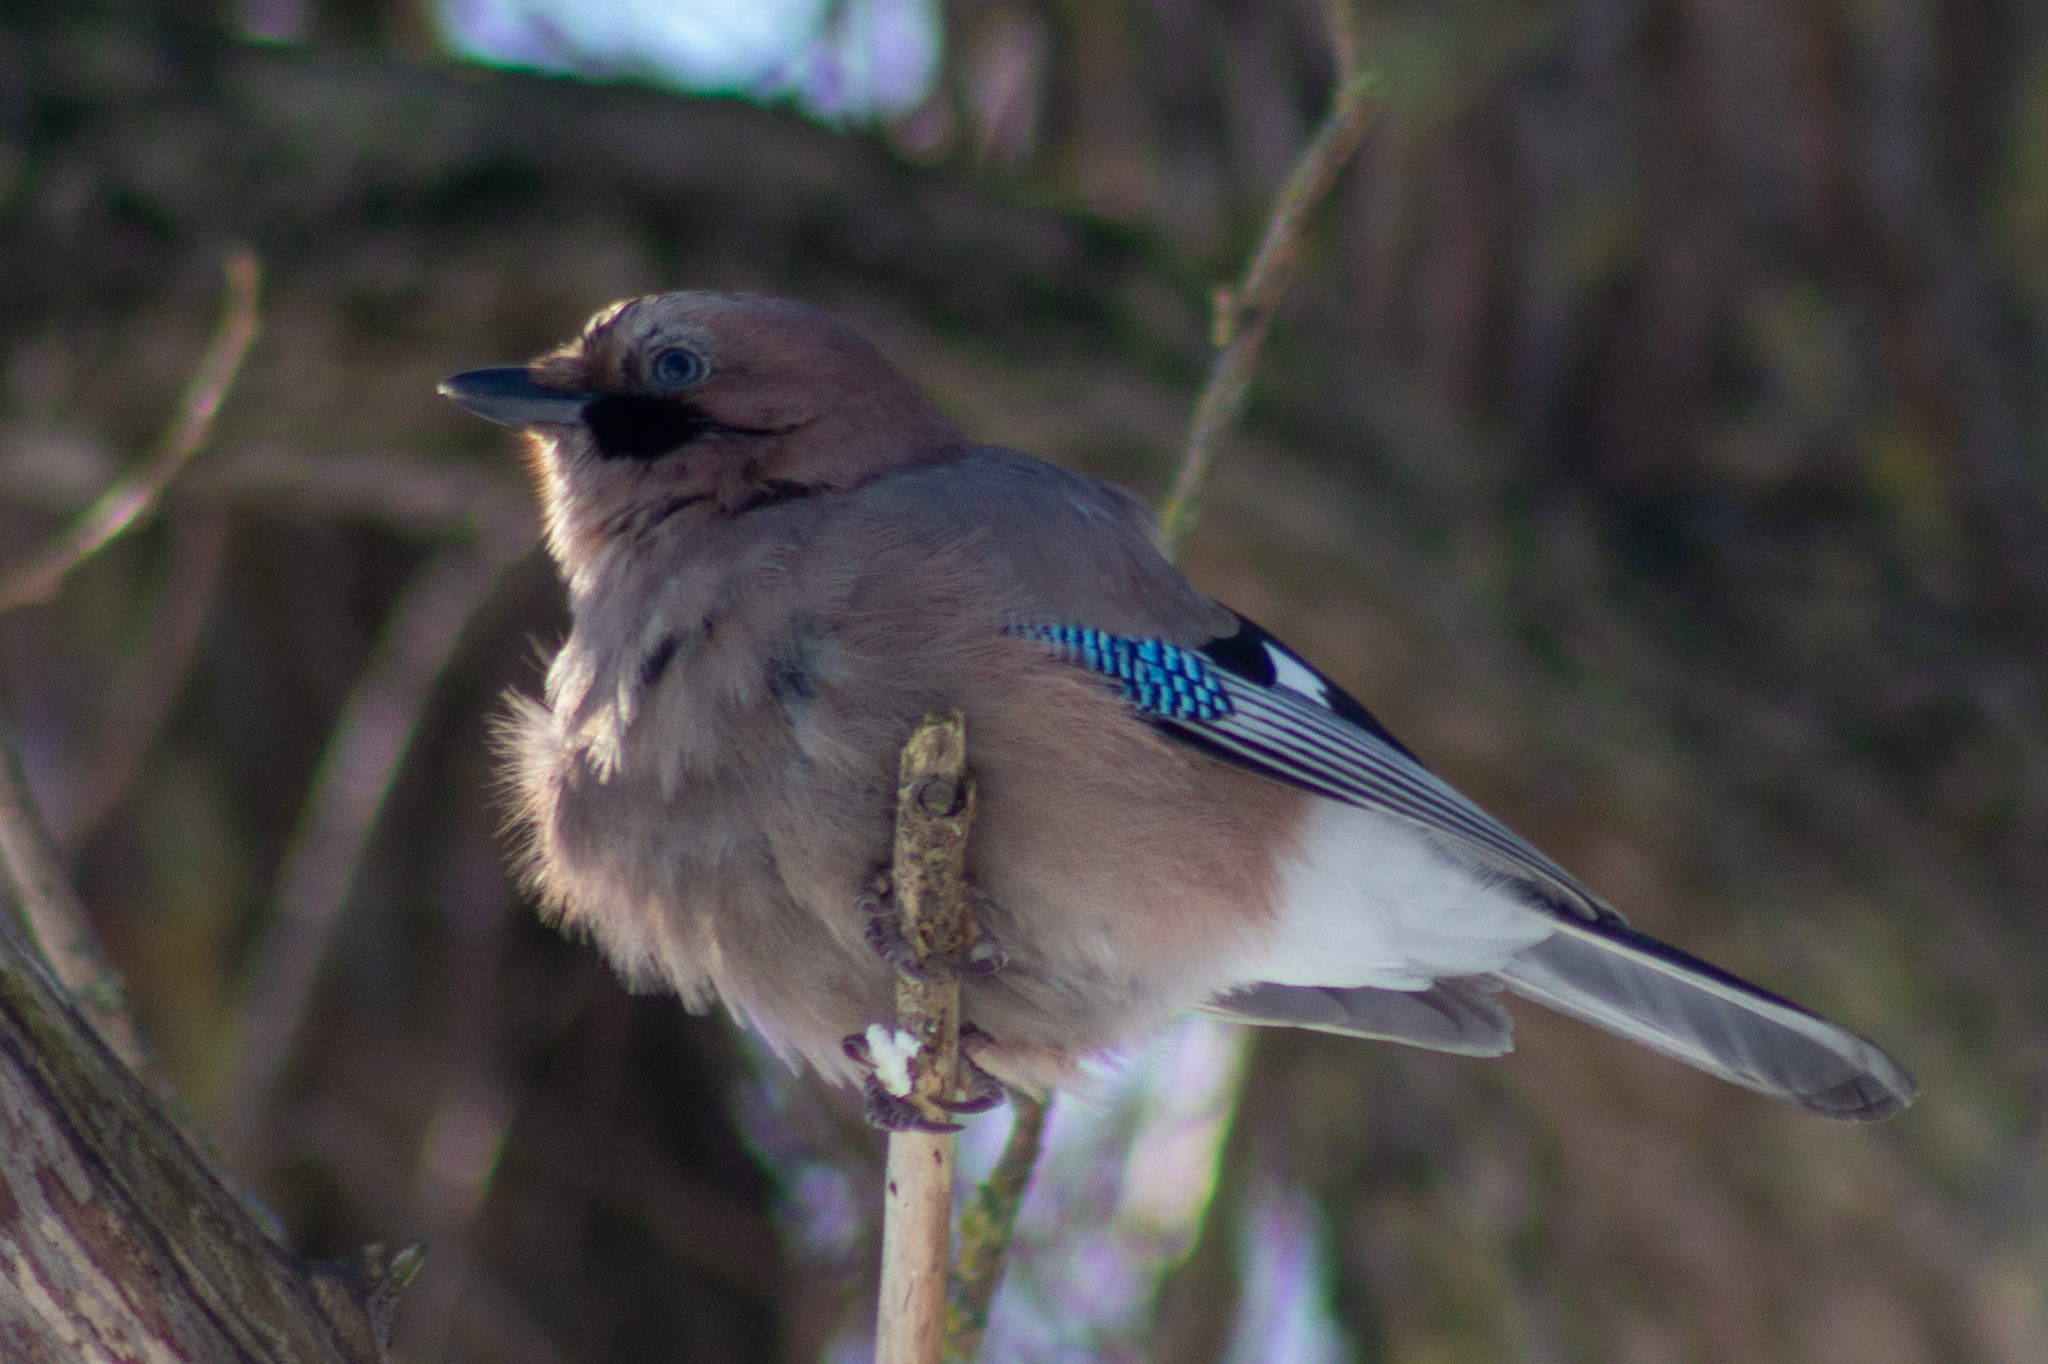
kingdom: Animalia
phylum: Chordata
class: Aves
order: Passeriformes
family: Corvidae
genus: Garrulus
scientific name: Garrulus glandarius
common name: Eurasian jay
